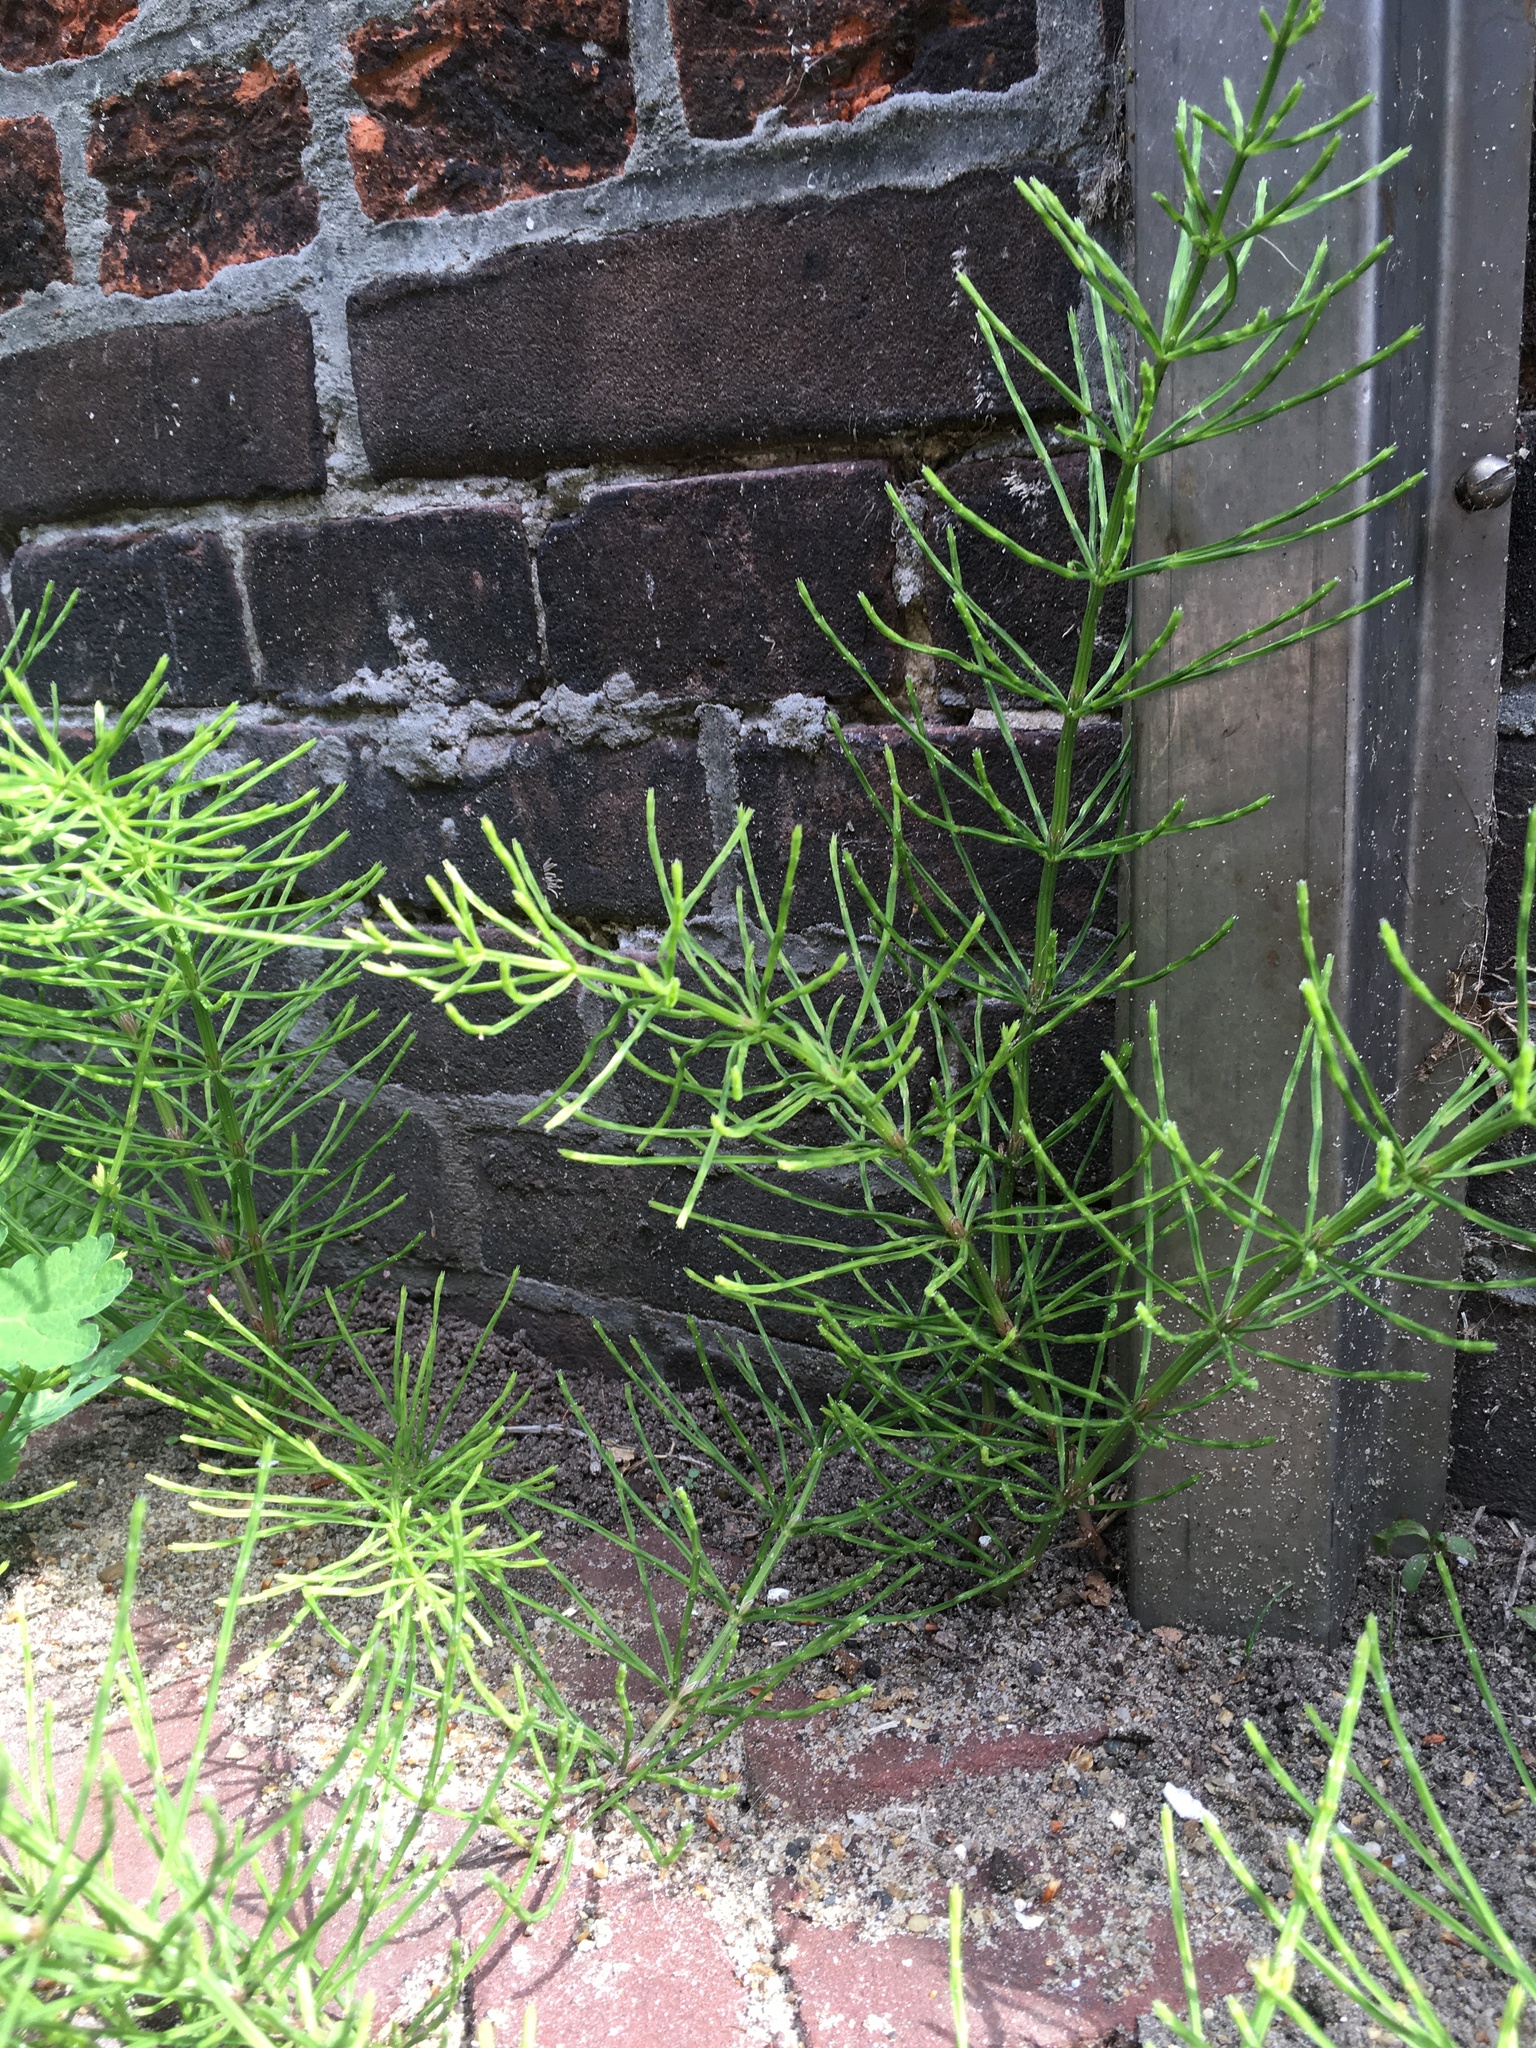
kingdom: Plantae
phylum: Tracheophyta
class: Polypodiopsida
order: Equisetales
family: Equisetaceae
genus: Equisetum
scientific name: Equisetum arvense
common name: Field horsetail
